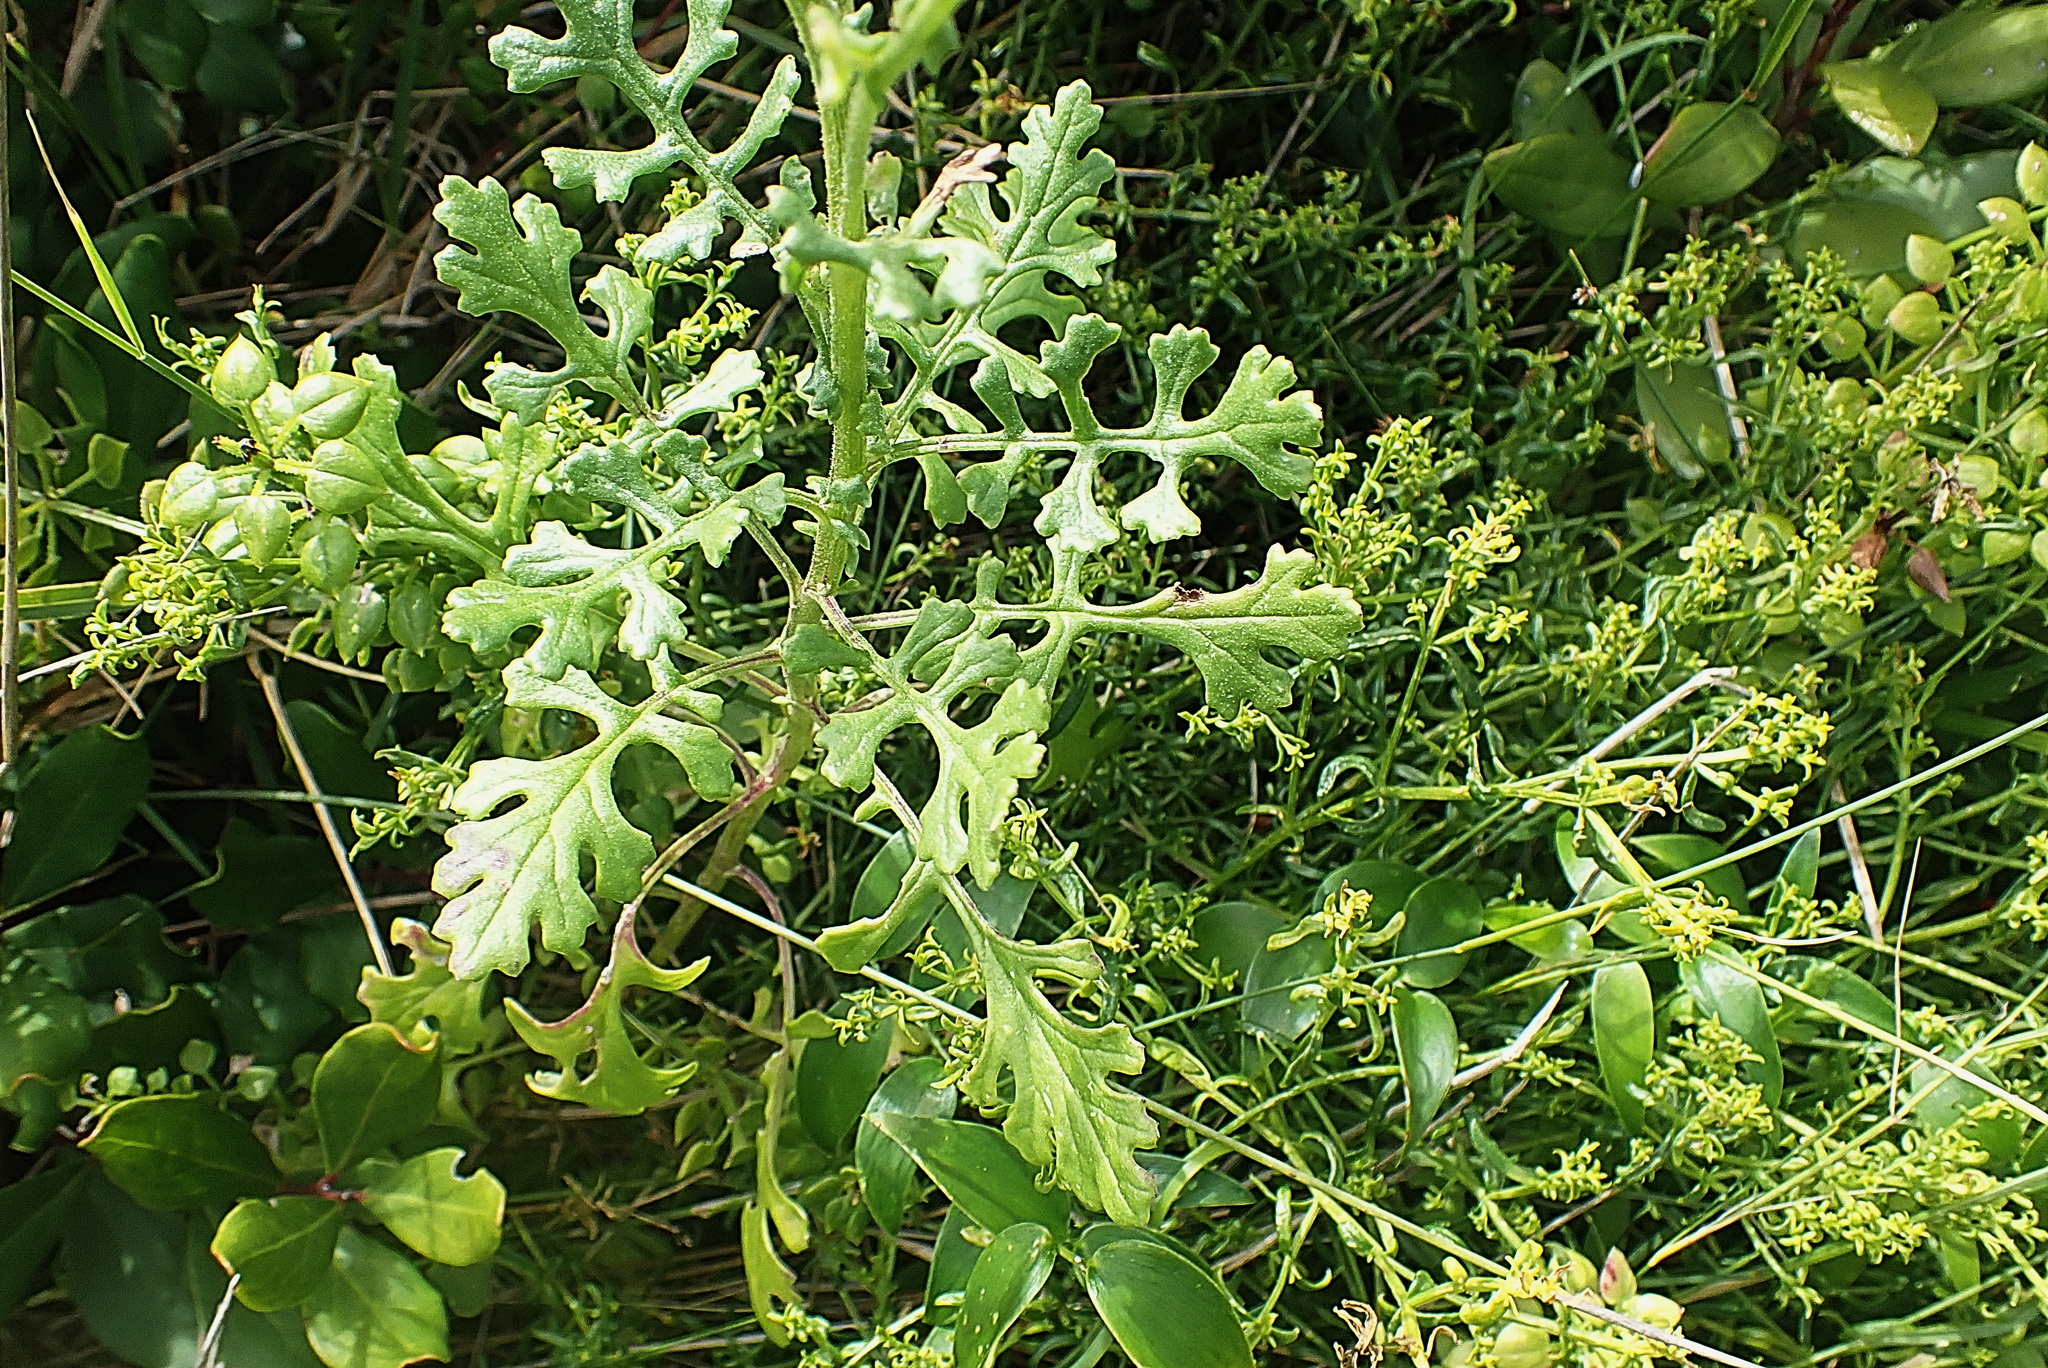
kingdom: Plantae
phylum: Tracheophyta
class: Magnoliopsida
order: Asterales
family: Asteraceae
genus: Senecio
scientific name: Senecio elegans
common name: Purple groundsel
